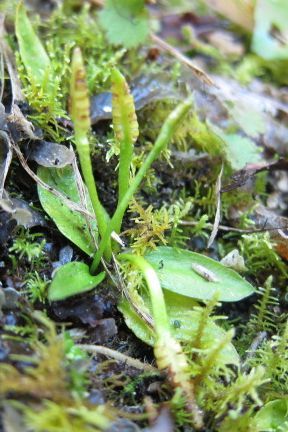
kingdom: Plantae
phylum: Tracheophyta
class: Polypodiopsida
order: Ophioglossales
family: Ophioglossaceae
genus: Ophioglossum
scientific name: Ophioglossum coriaceum
